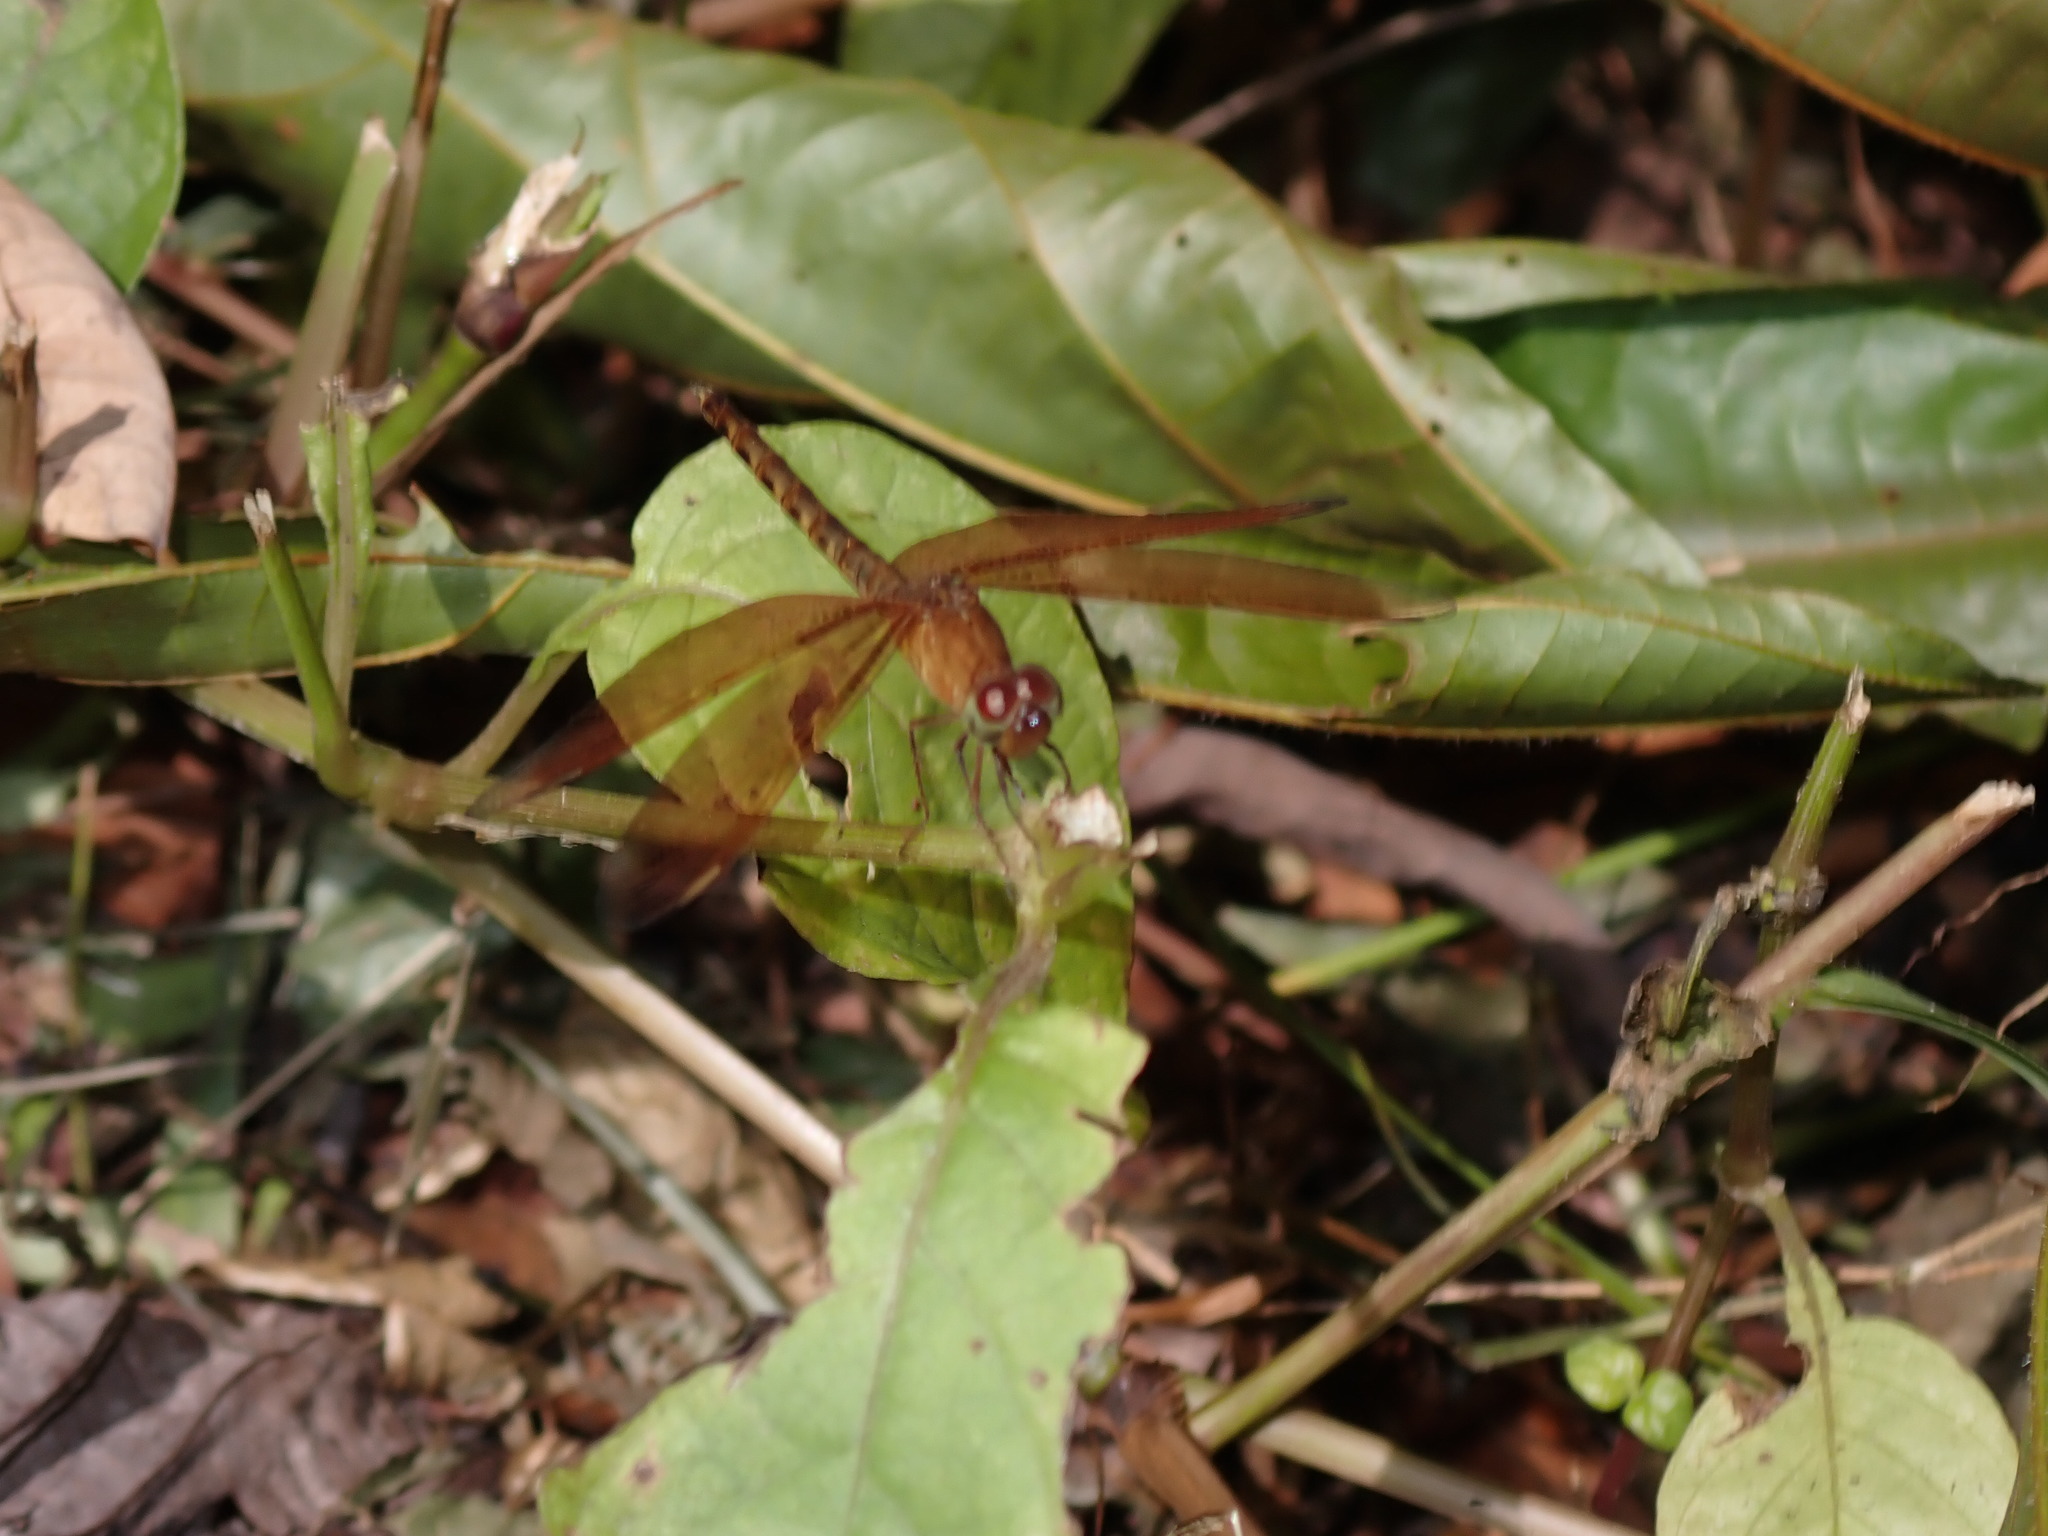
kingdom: Animalia
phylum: Arthropoda
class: Insecta
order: Odonata
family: Libellulidae
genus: Neurothemis
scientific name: Neurothemis fluctuans
